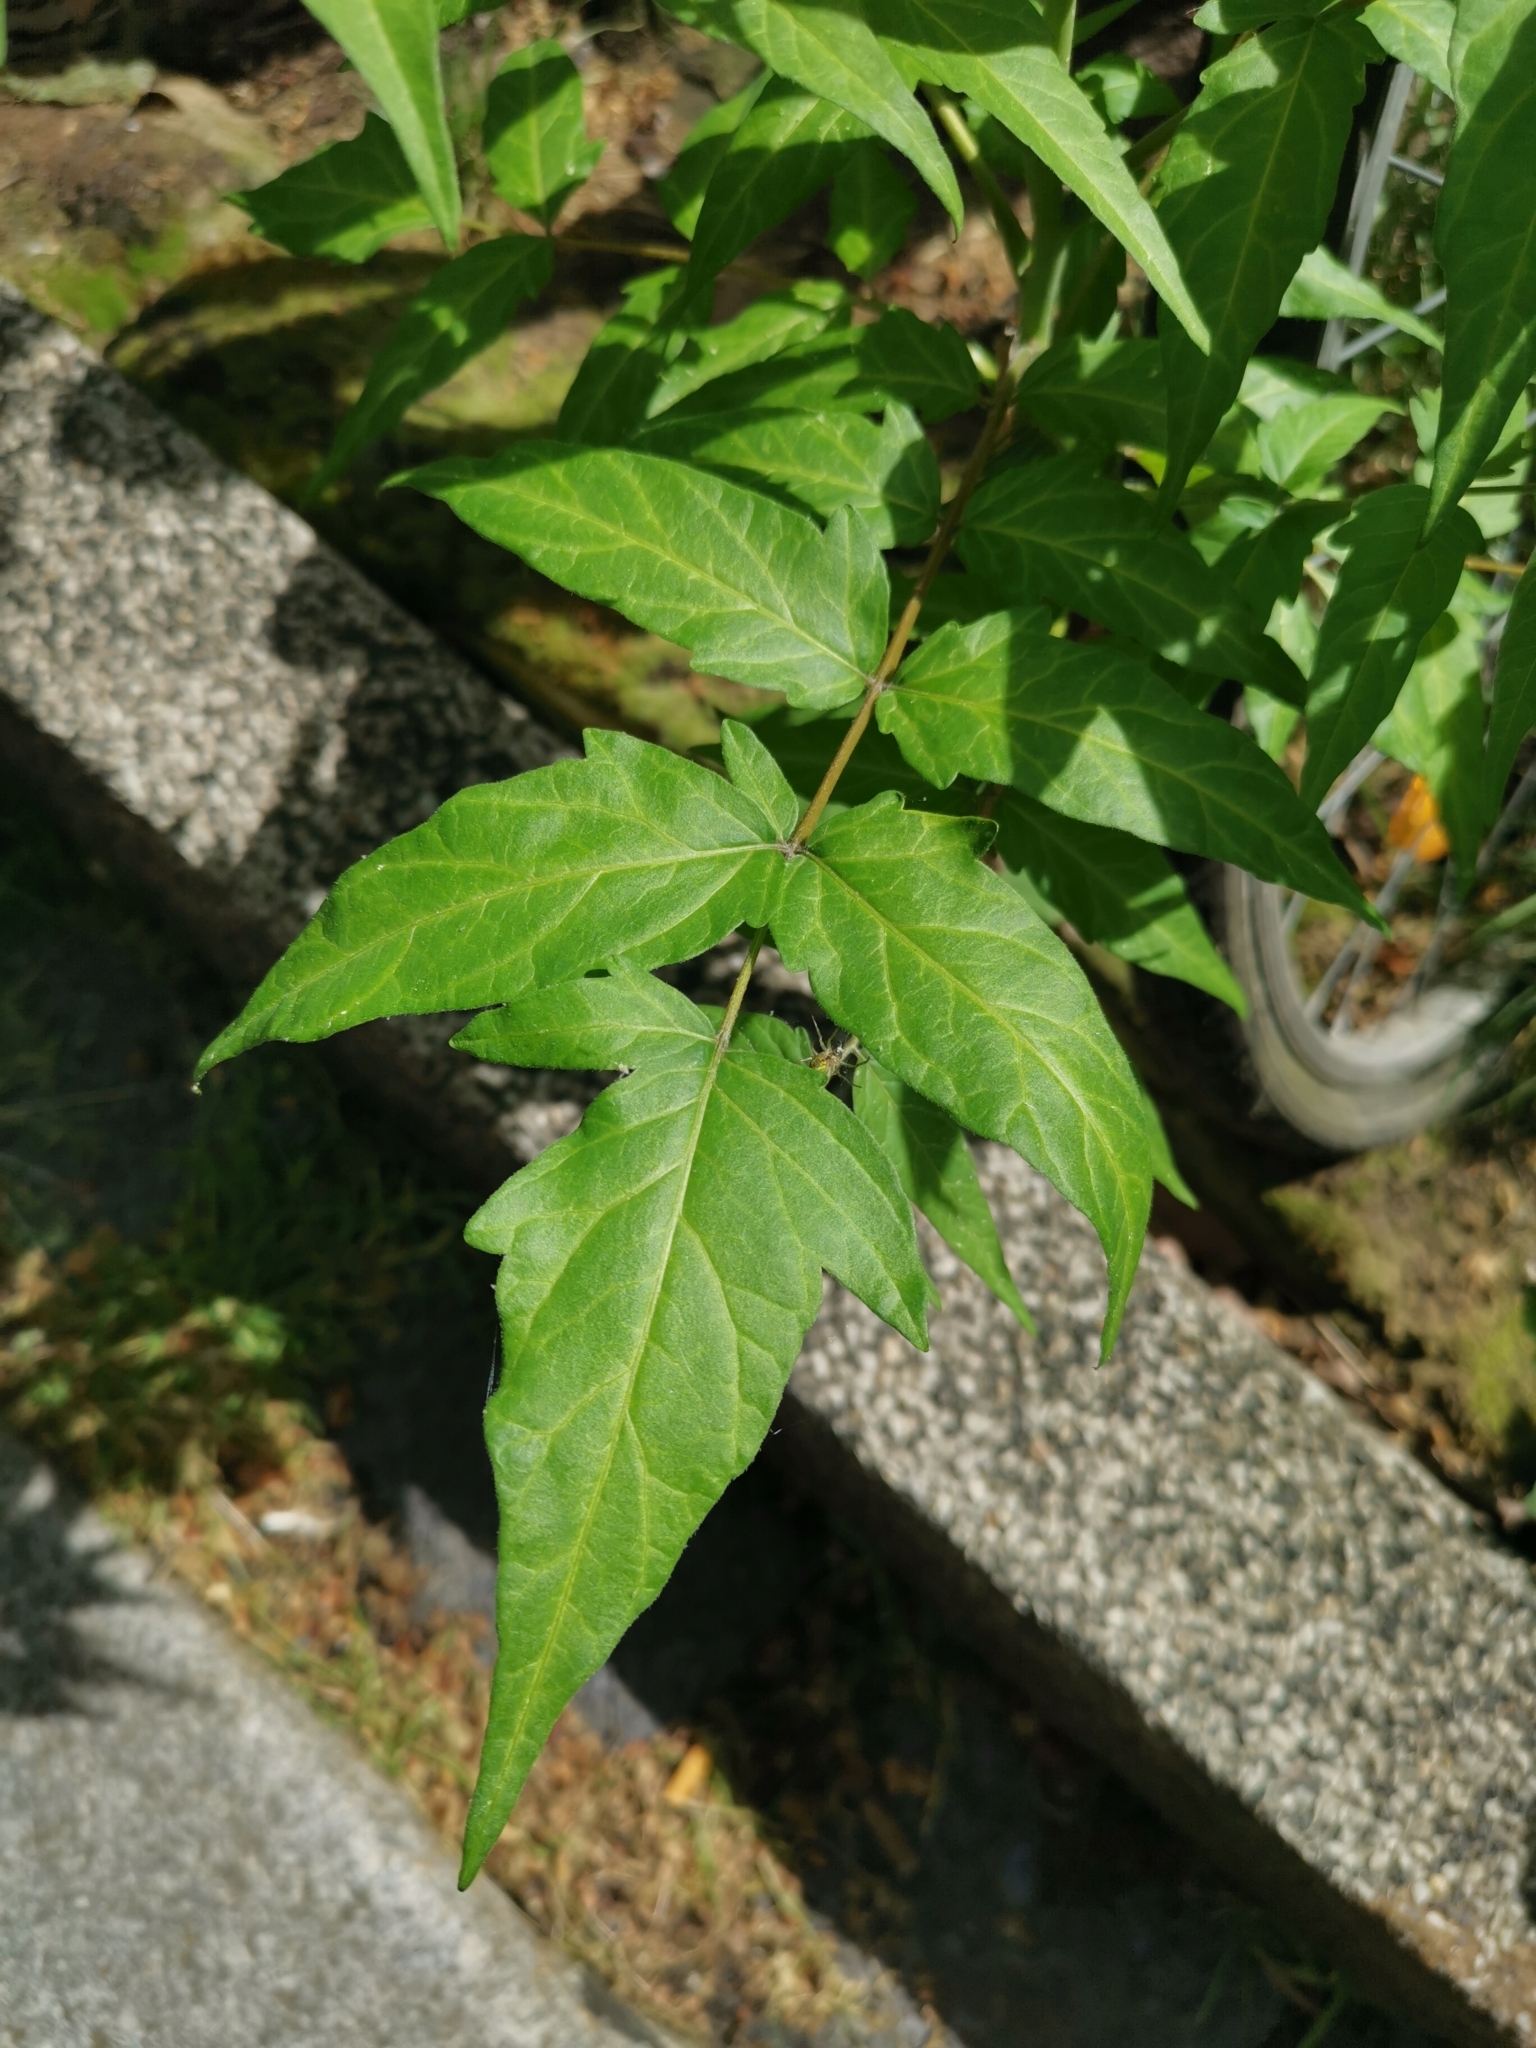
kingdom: Plantae
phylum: Tracheophyta
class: Magnoliopsida
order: Sapindales
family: Simaroubaceae
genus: Ailanthus
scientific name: Ailanthus altissima
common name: Tree-of-heaven
